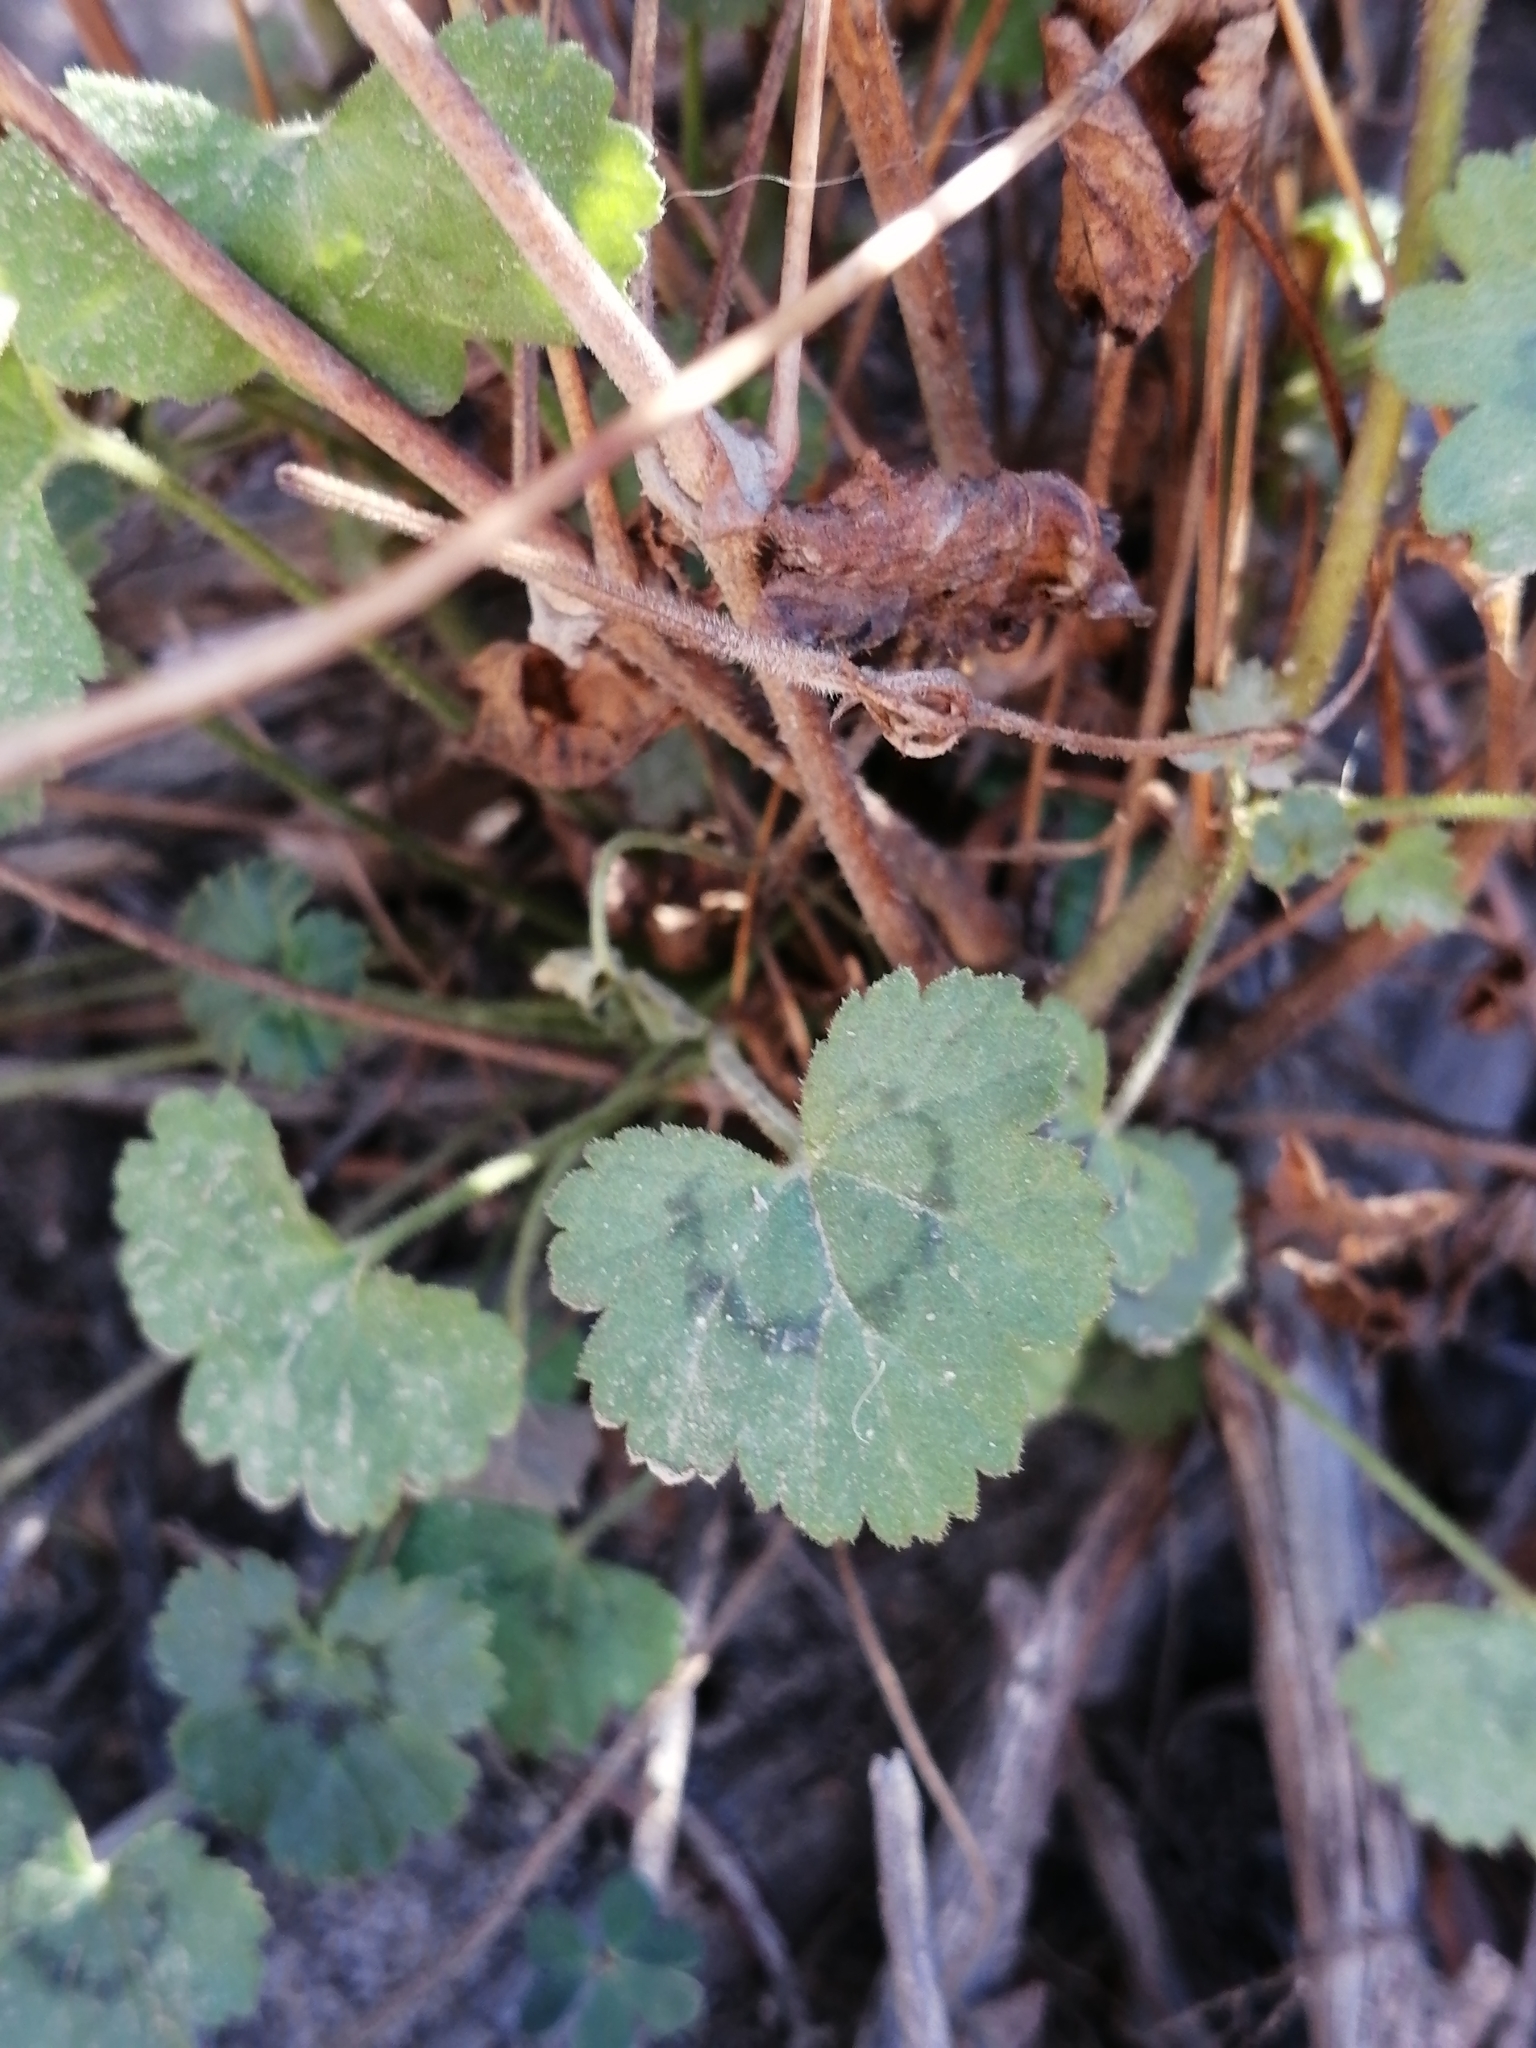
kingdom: Plantae
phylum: Tracheophyta
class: Magnoliopsida
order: Geraniales
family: Geraniaceae
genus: Pelargonium
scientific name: Pelargonium elongatum
